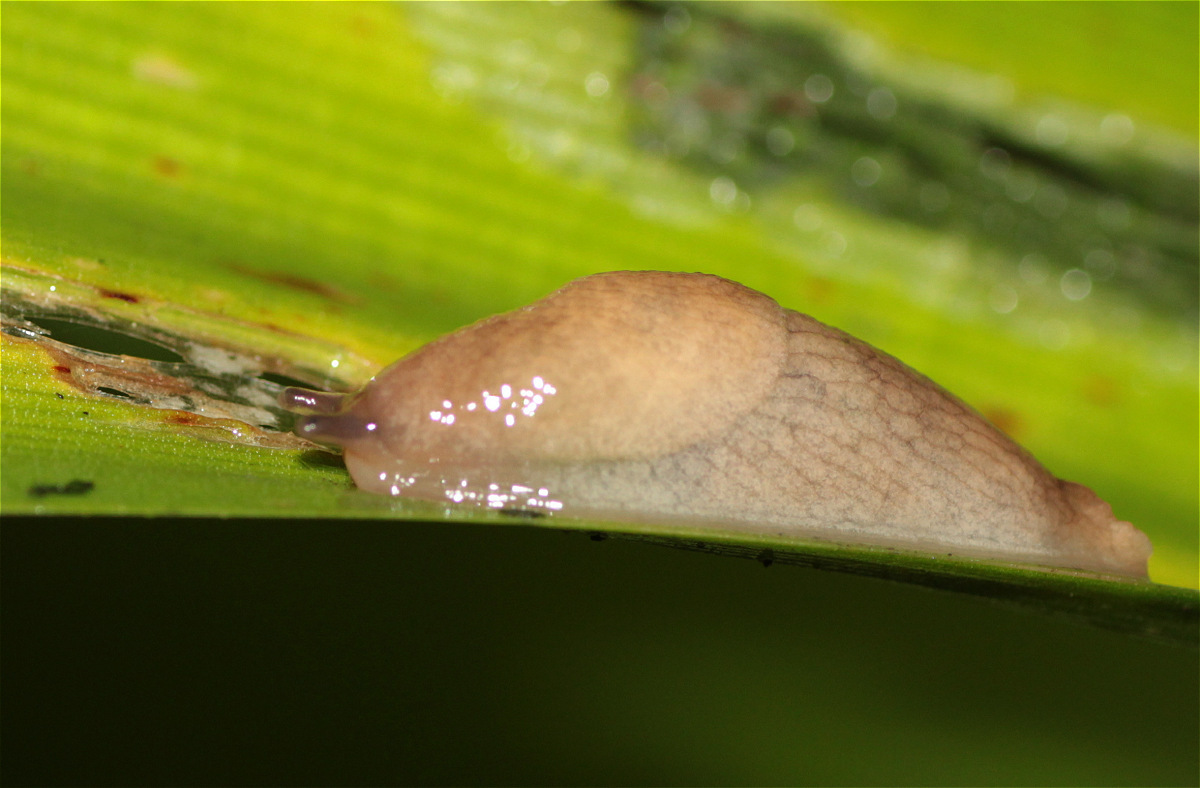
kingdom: Animalia
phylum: Mollusca
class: Gastropoda
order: Stylommatophora
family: Agriolimacidae
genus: Deroceras
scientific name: Deroceras reticulatum
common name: Gray field slug
